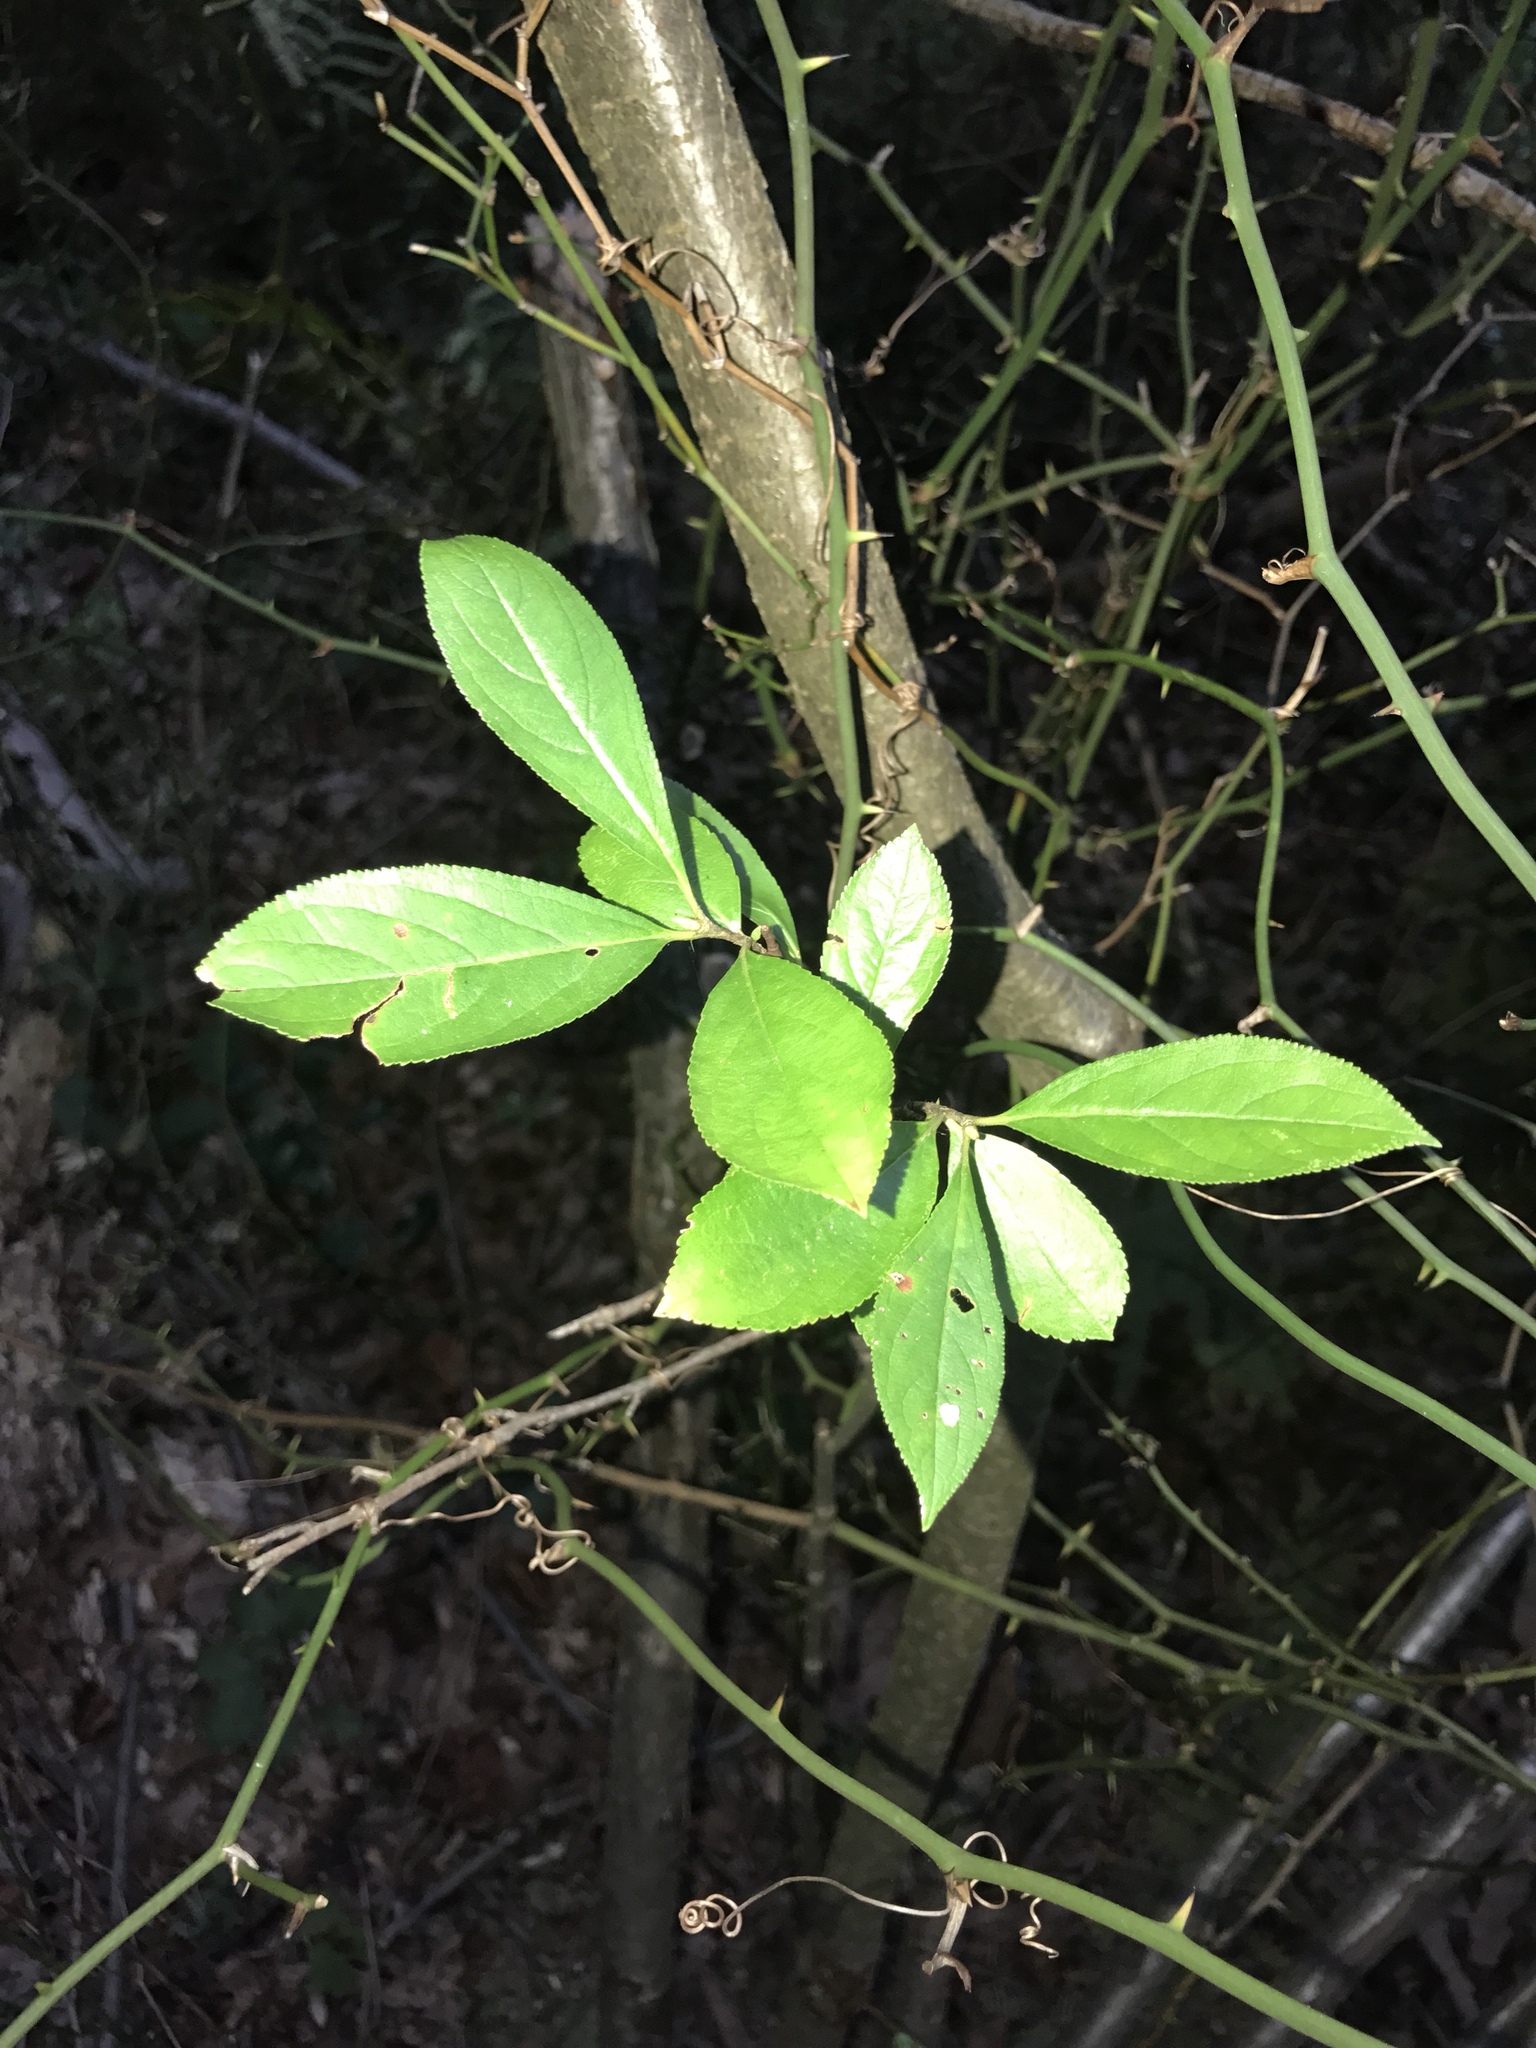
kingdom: Plantae
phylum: Tracheophyta
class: Magnoliopsida
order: Rosales
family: Rosaceae
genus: Aronia
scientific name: Aronia arbutifolia
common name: Red chokeberry
